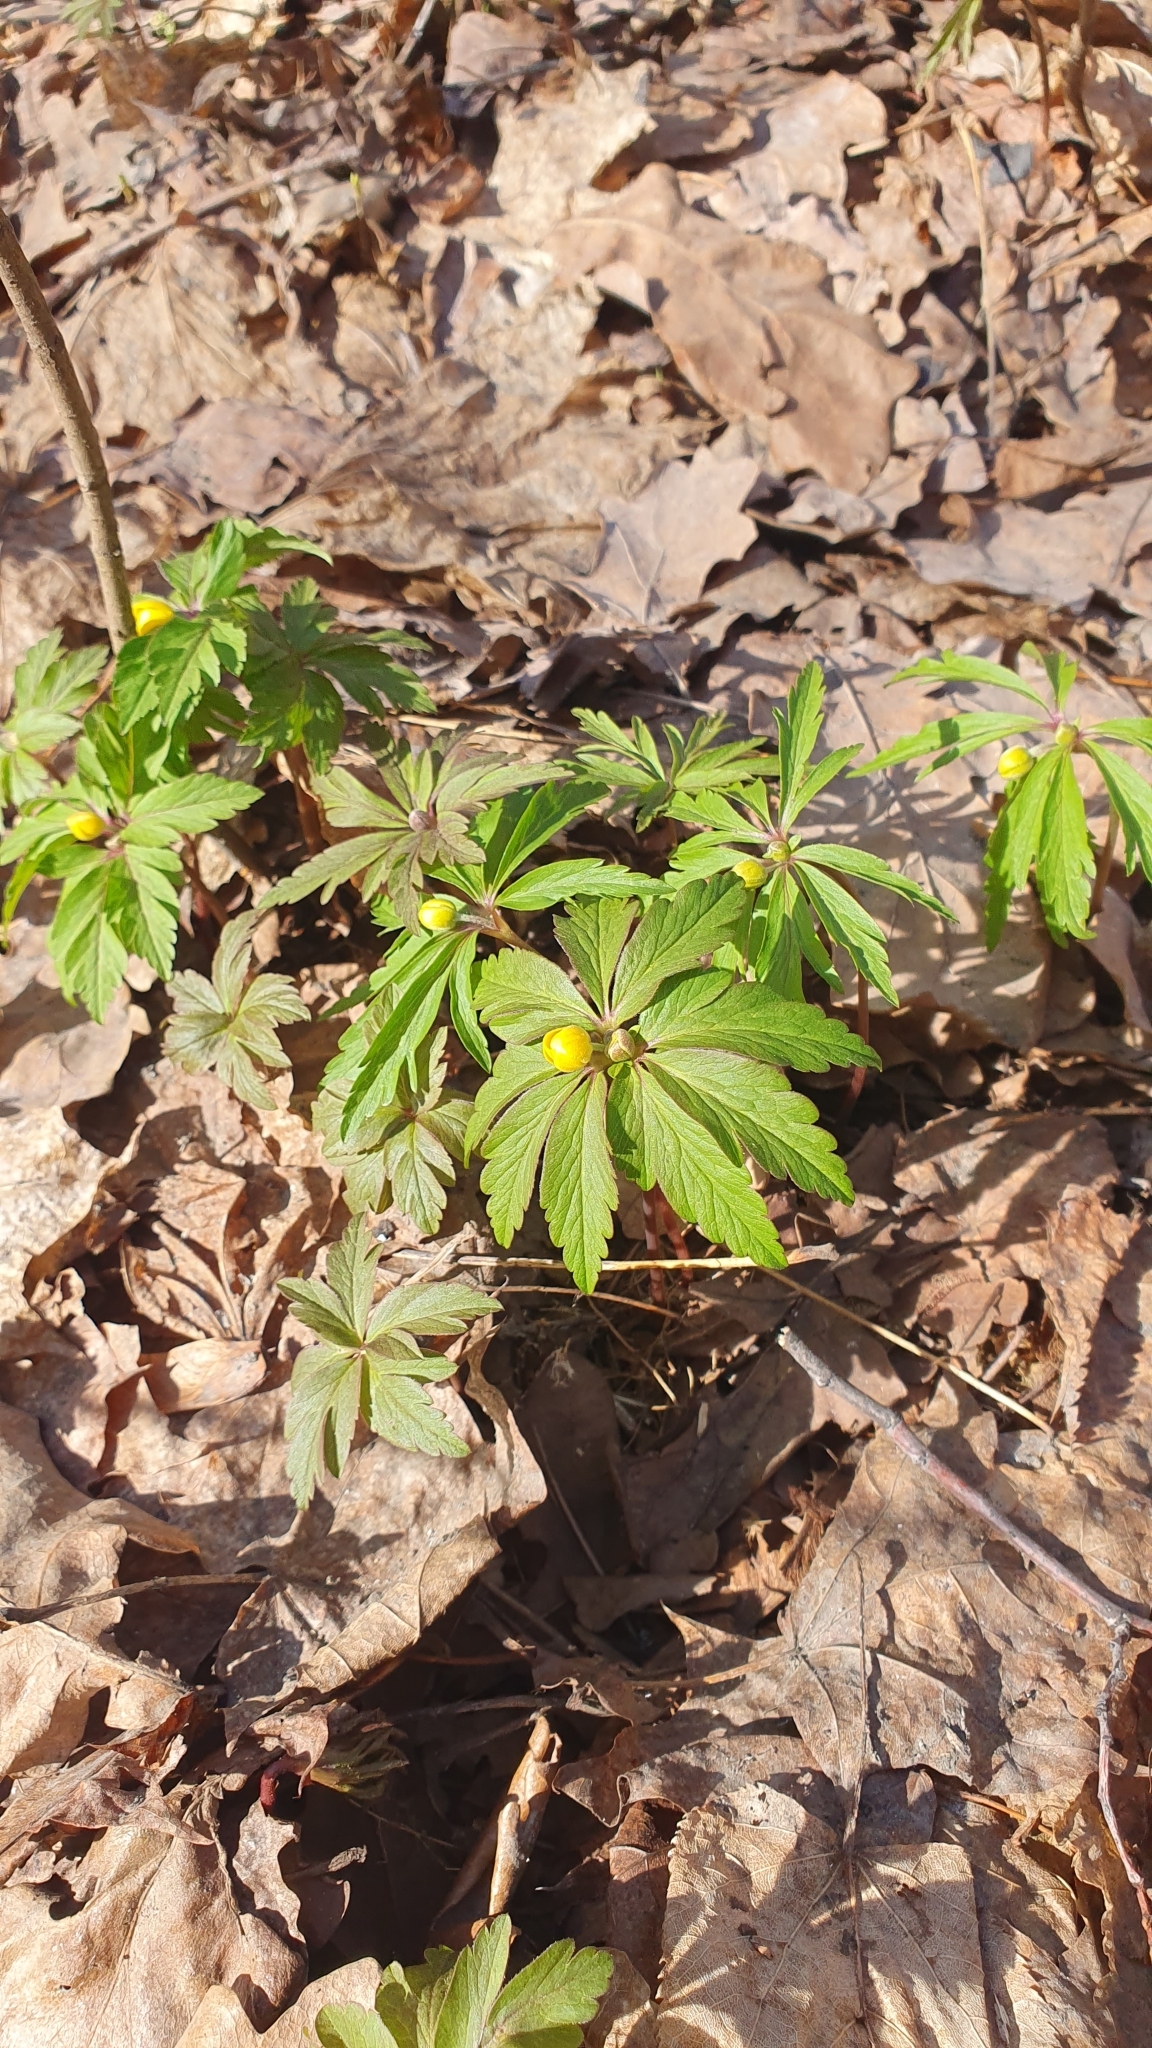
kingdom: Plantae
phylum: Tracheophyta
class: Magnoliopsida
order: Ranunculales
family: Ranunculaceae
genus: Anemone
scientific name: Anemone ranunculoides
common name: Yellow anemone
